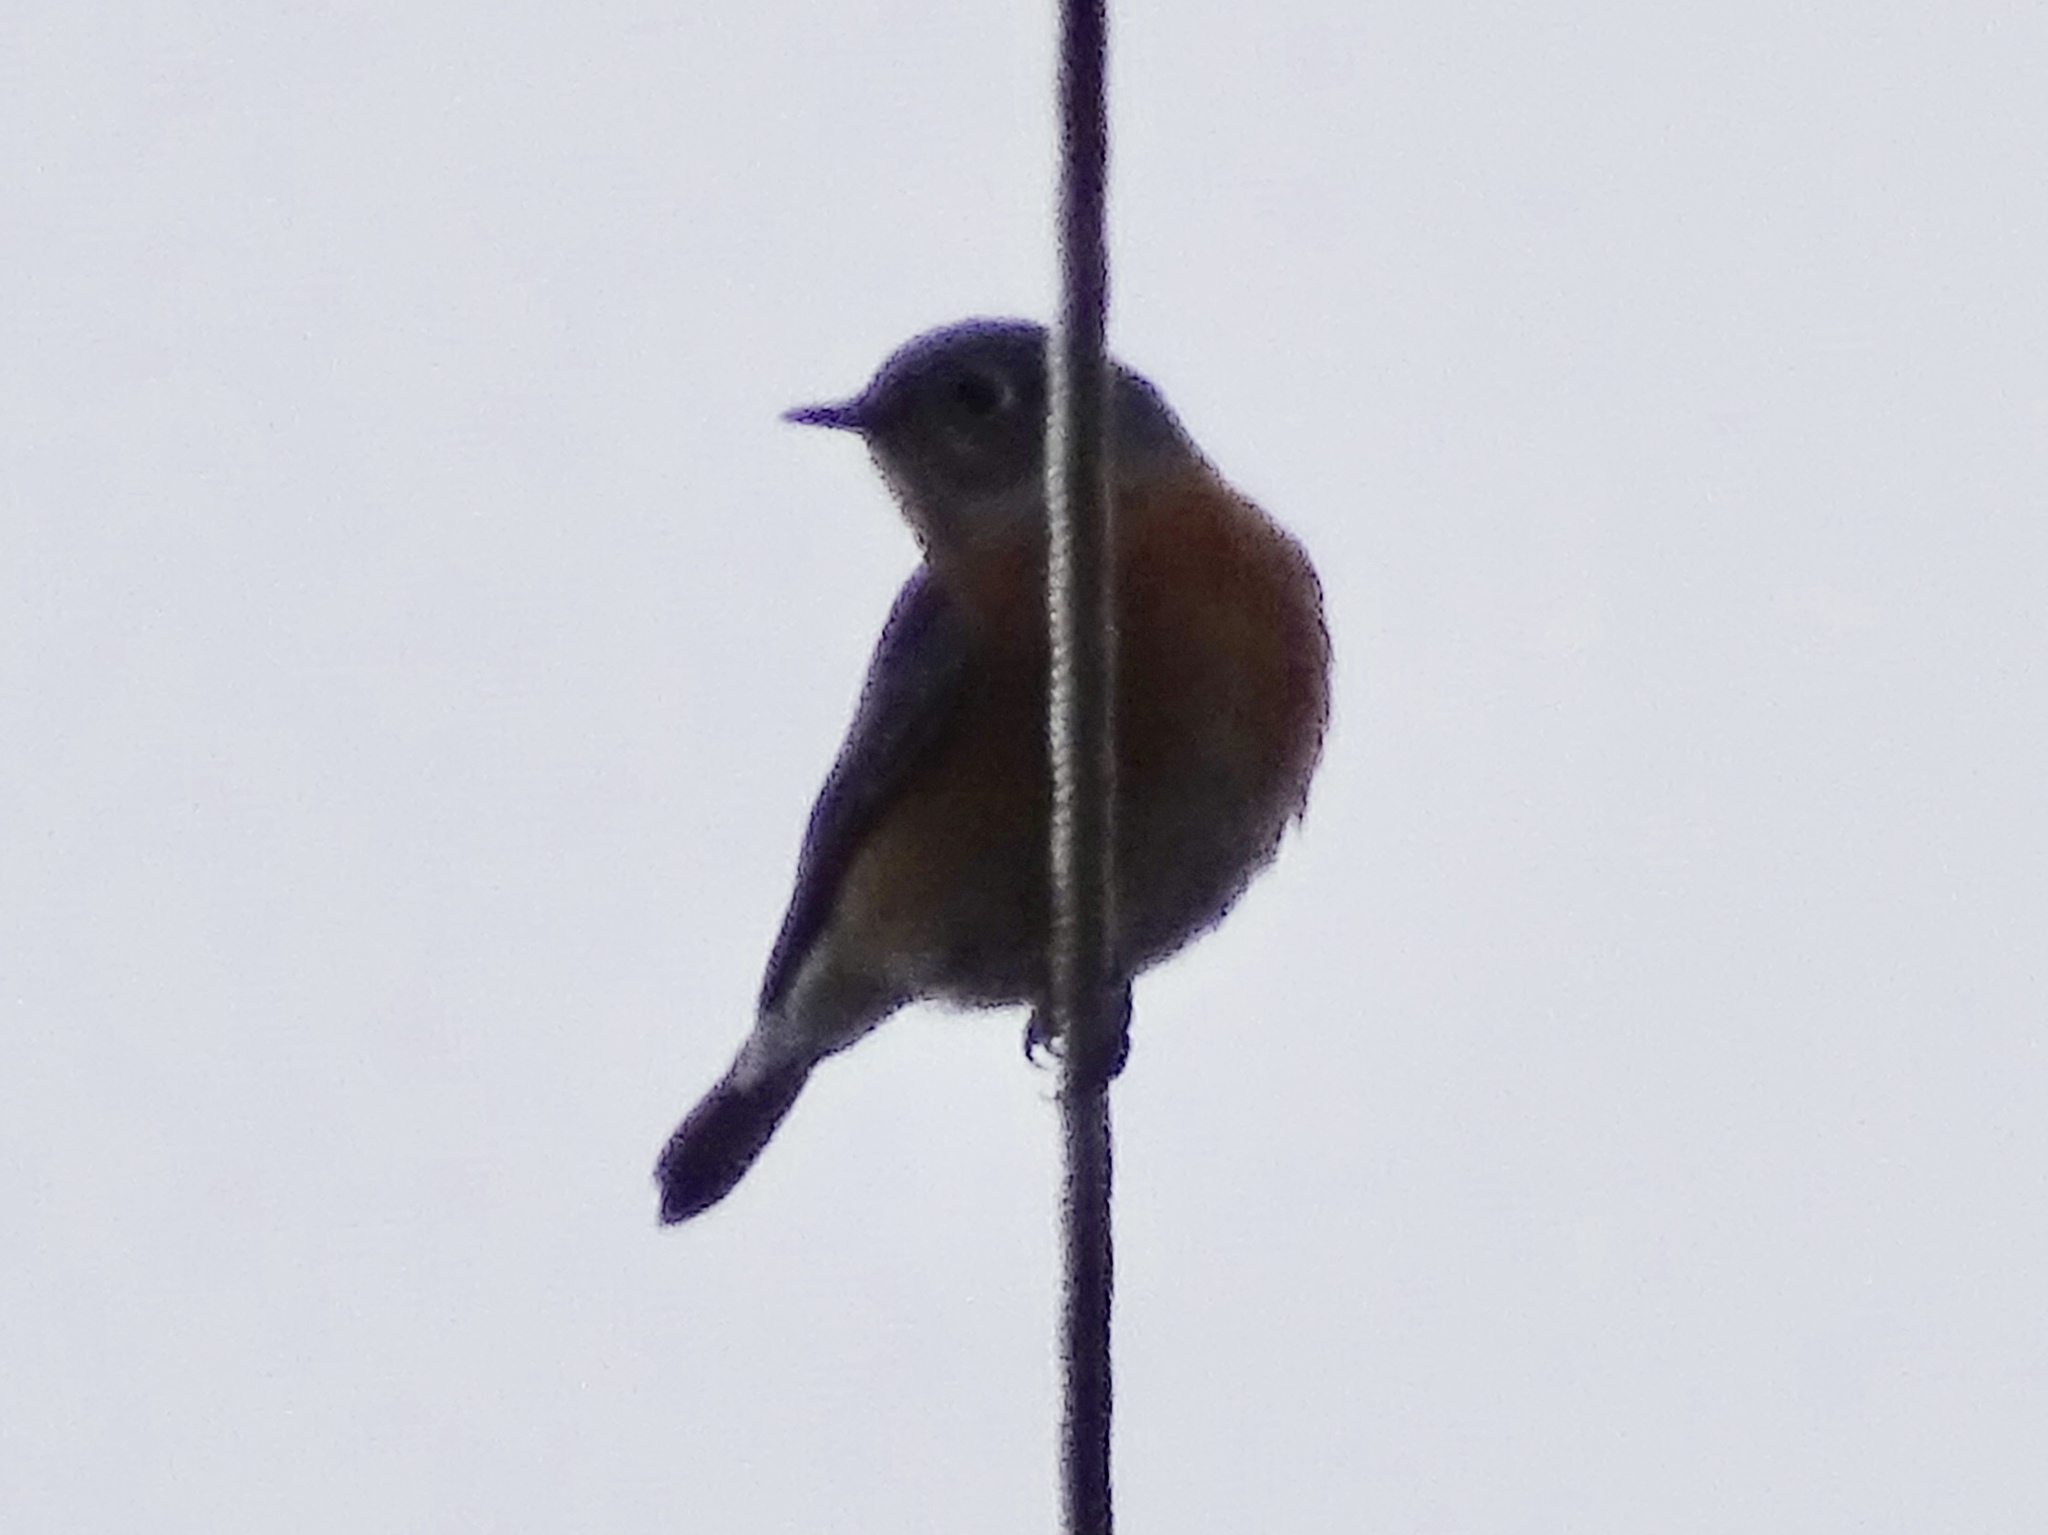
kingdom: Animalia
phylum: Chordata
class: Aves
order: Passeriformes
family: Turdidae
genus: Sialia
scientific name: Sialia mexicana
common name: Western bluebird
